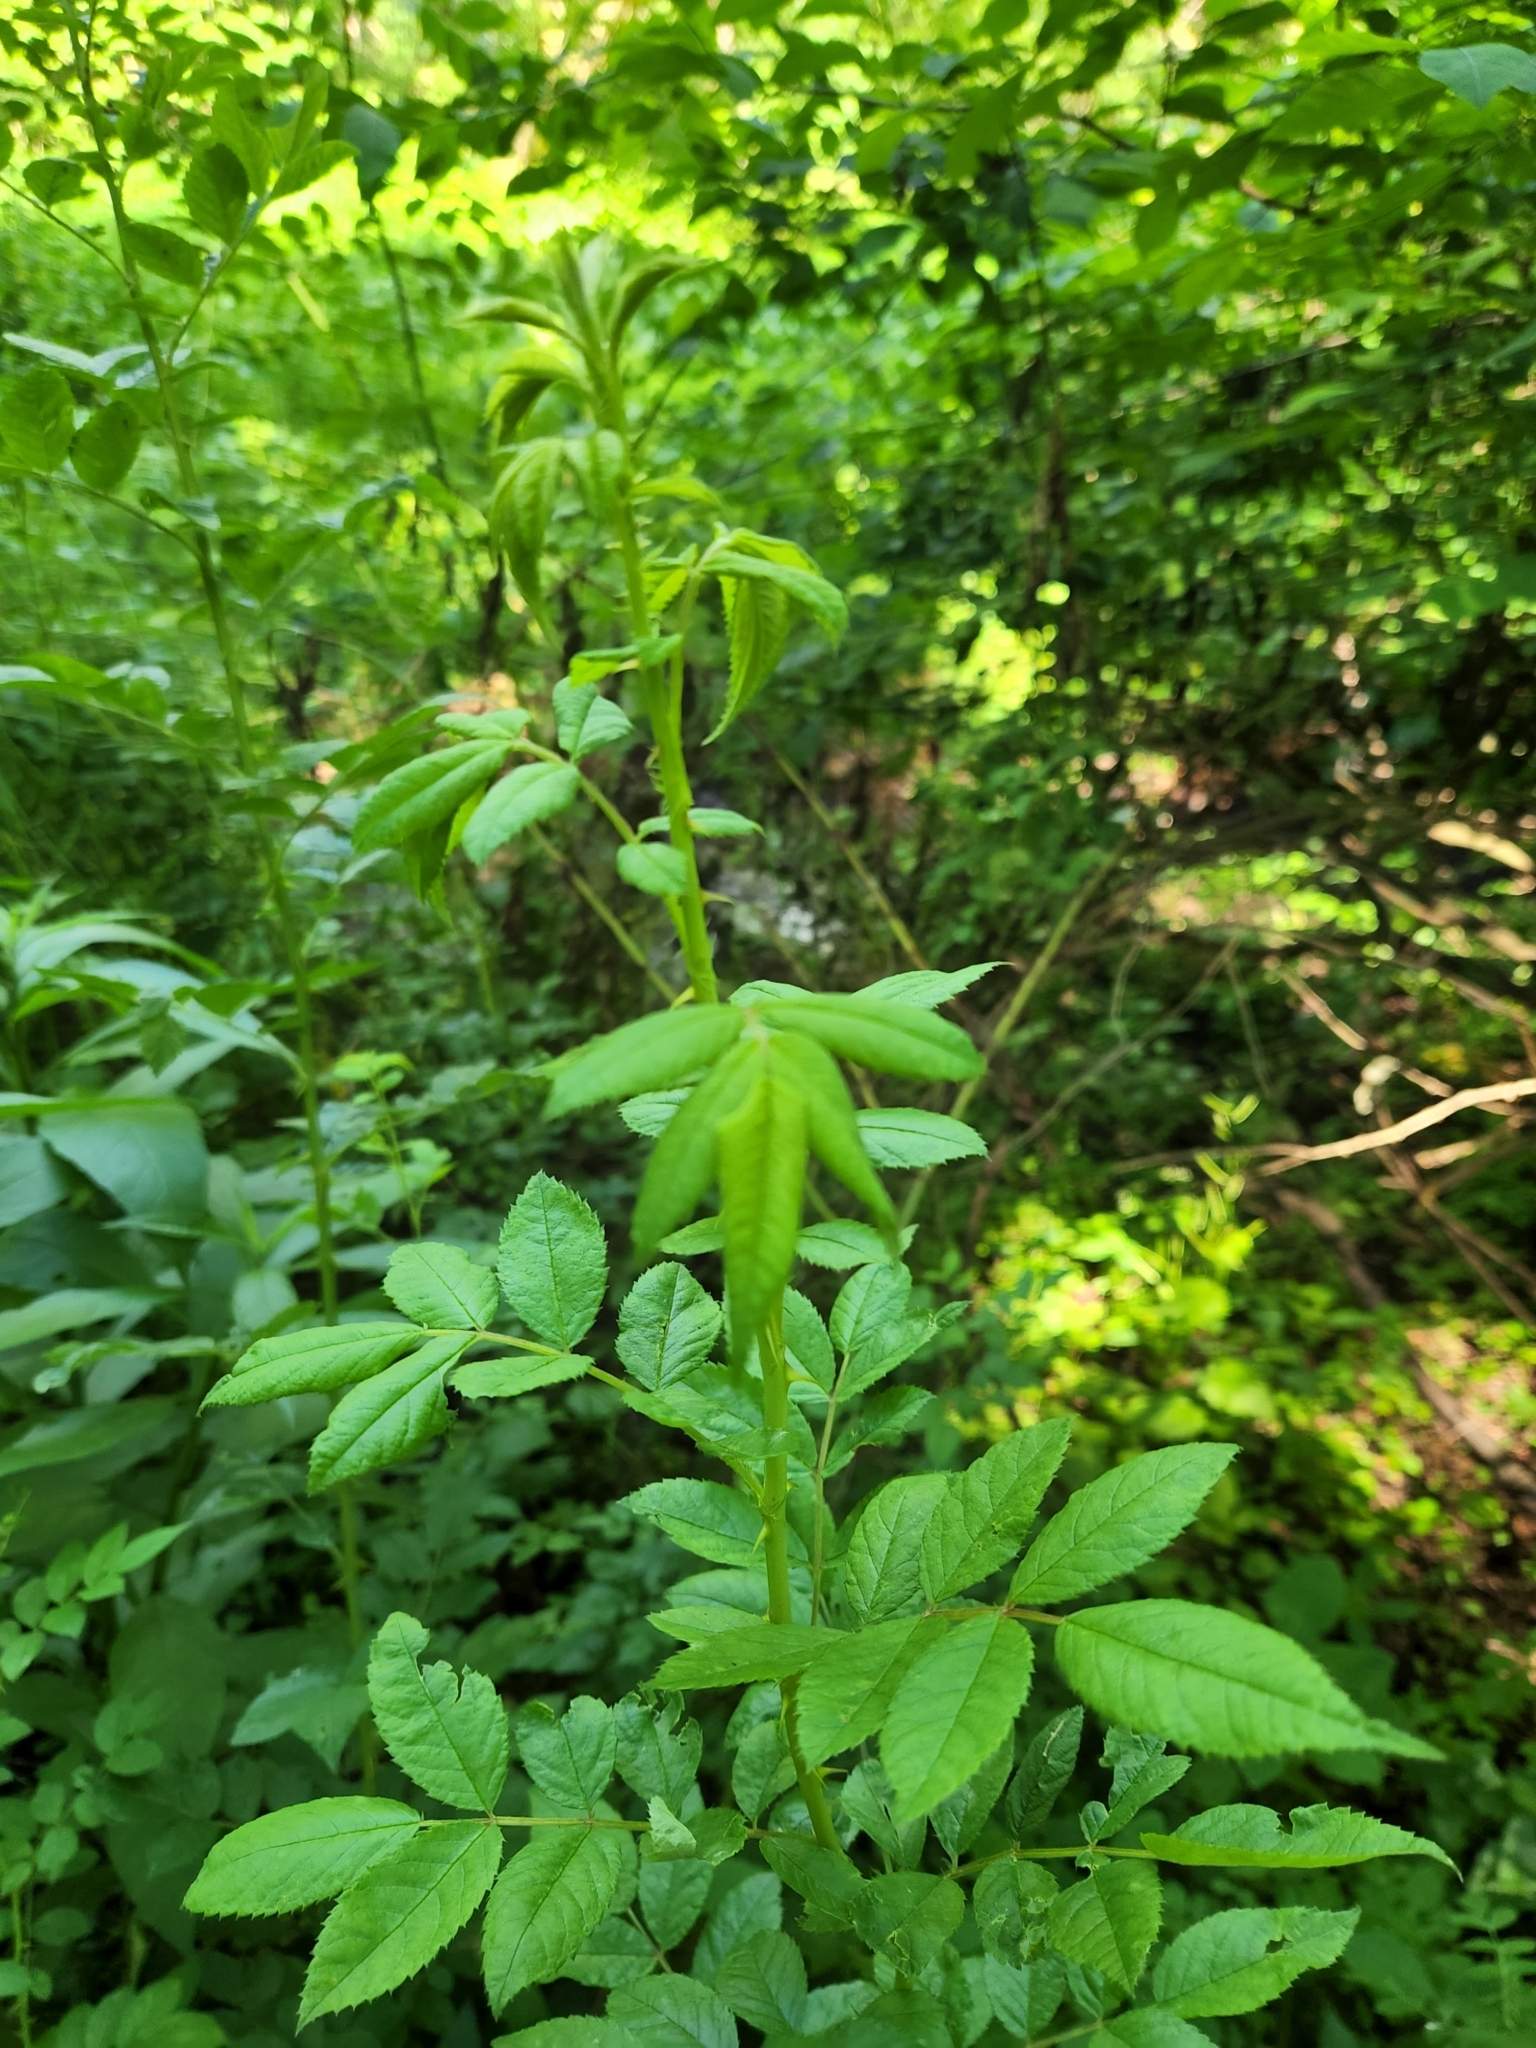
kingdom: Plantae
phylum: Tracheophyta
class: Magnoliopsida
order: Rosales
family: Rosaceae
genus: Rosa
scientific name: Rosa multiflora
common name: Multiflora rose
